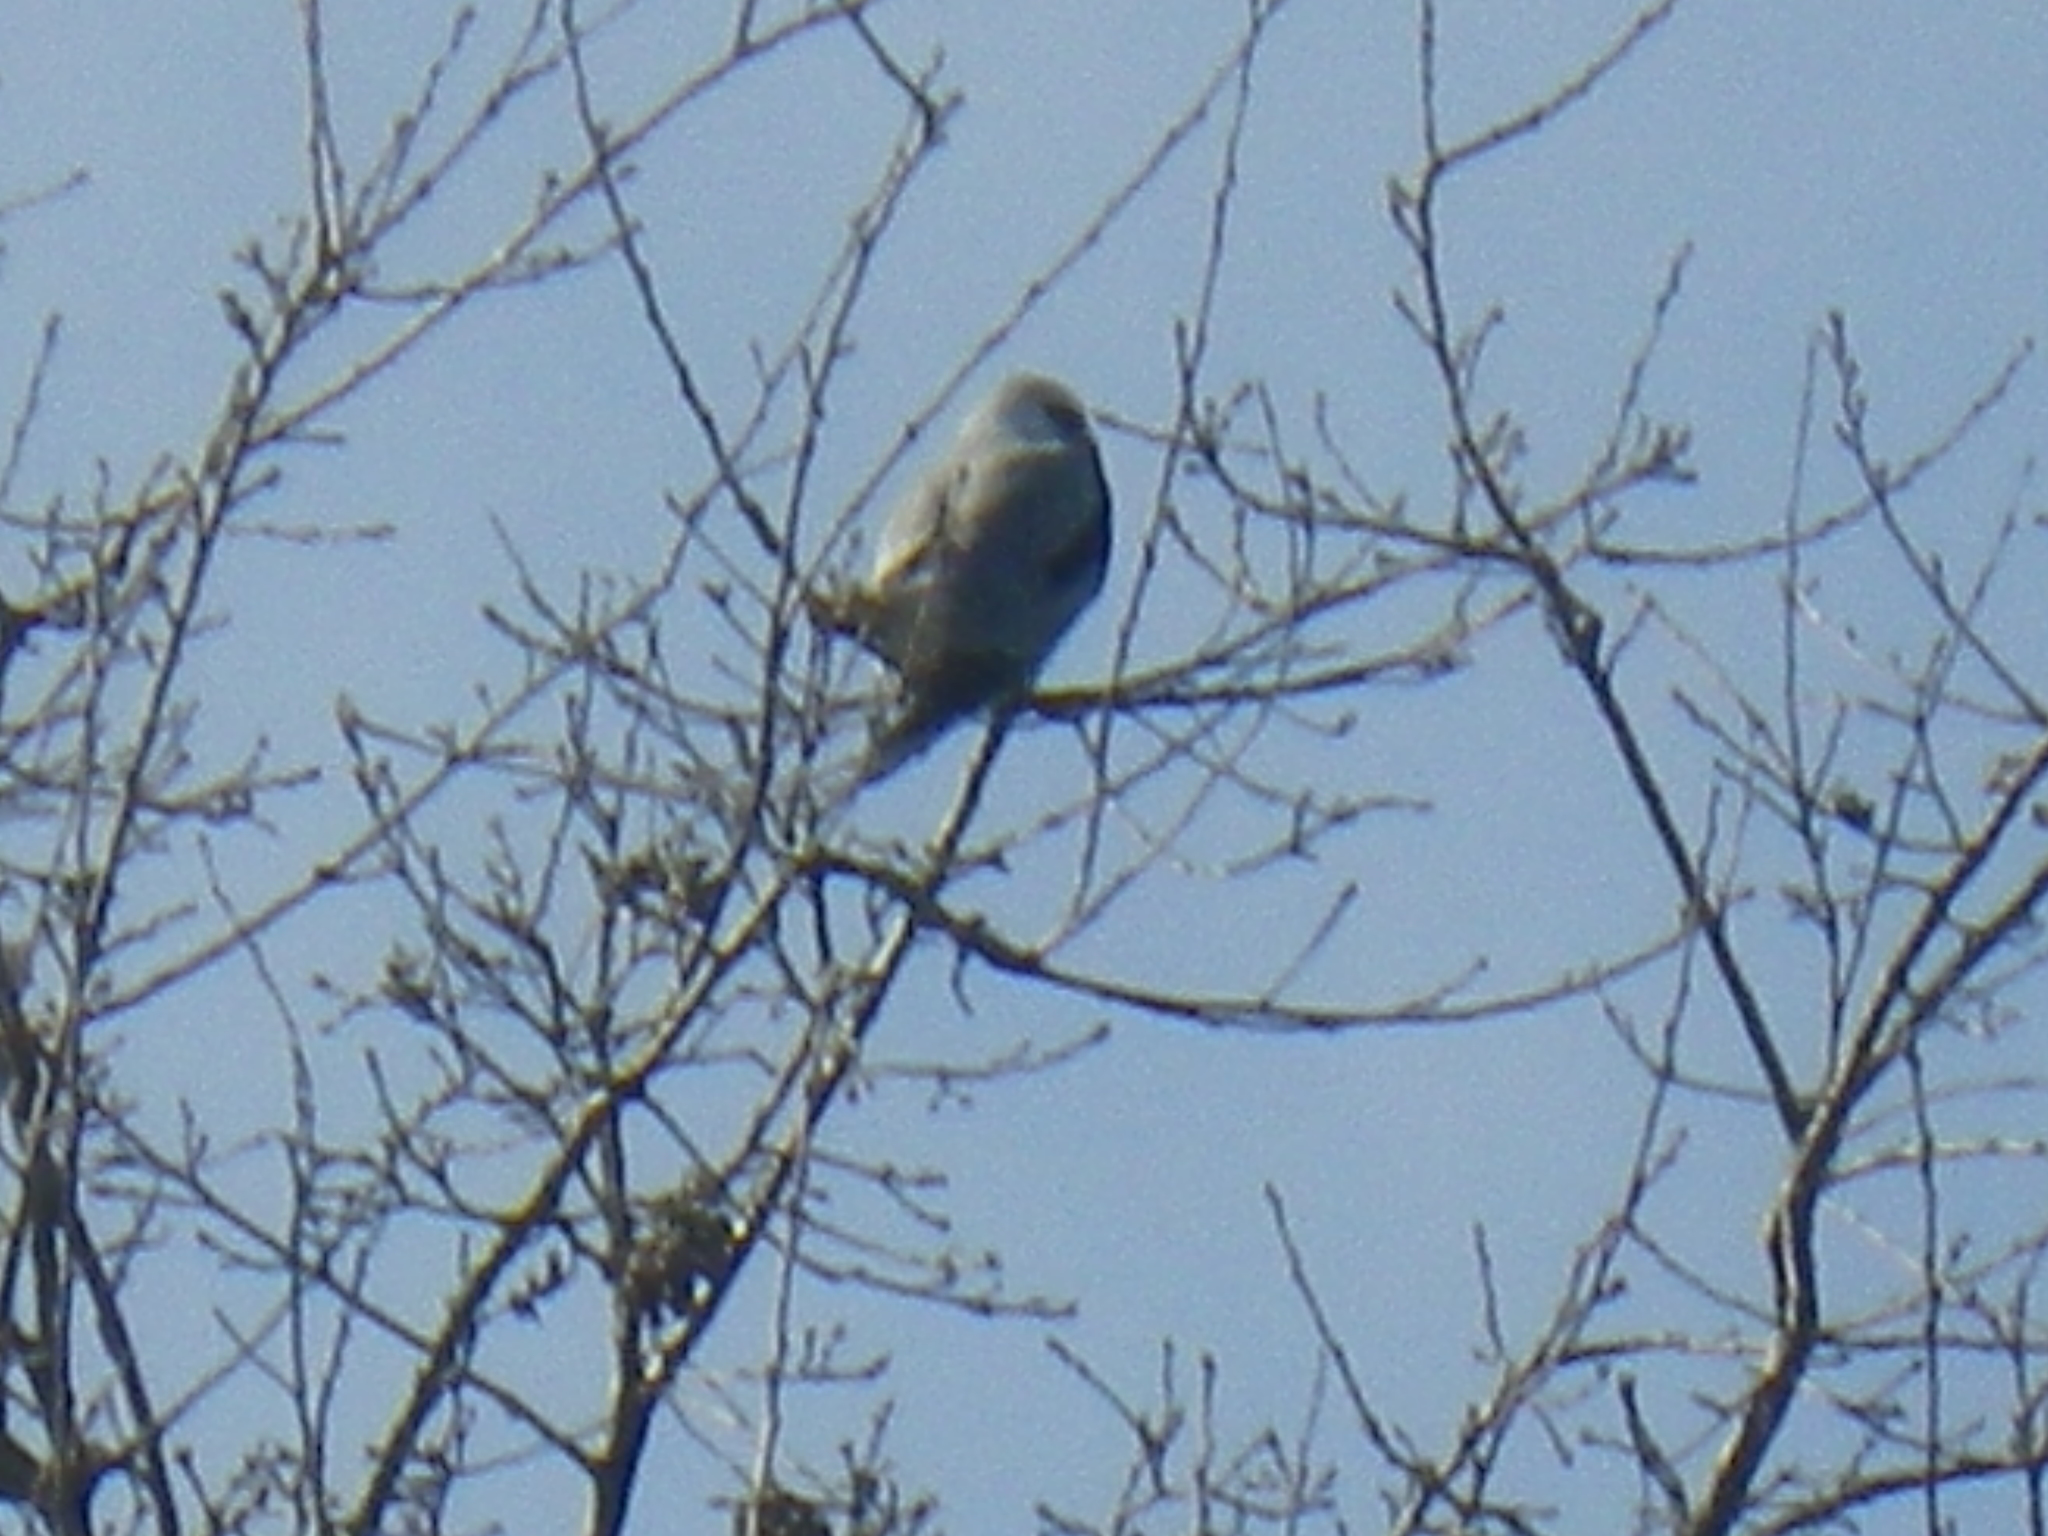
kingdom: Animalia
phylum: Chordata
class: Aves
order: Accipitriformes
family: Accipitridae
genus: Elanus
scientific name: Elanus leucurus
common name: White-tailed kite
